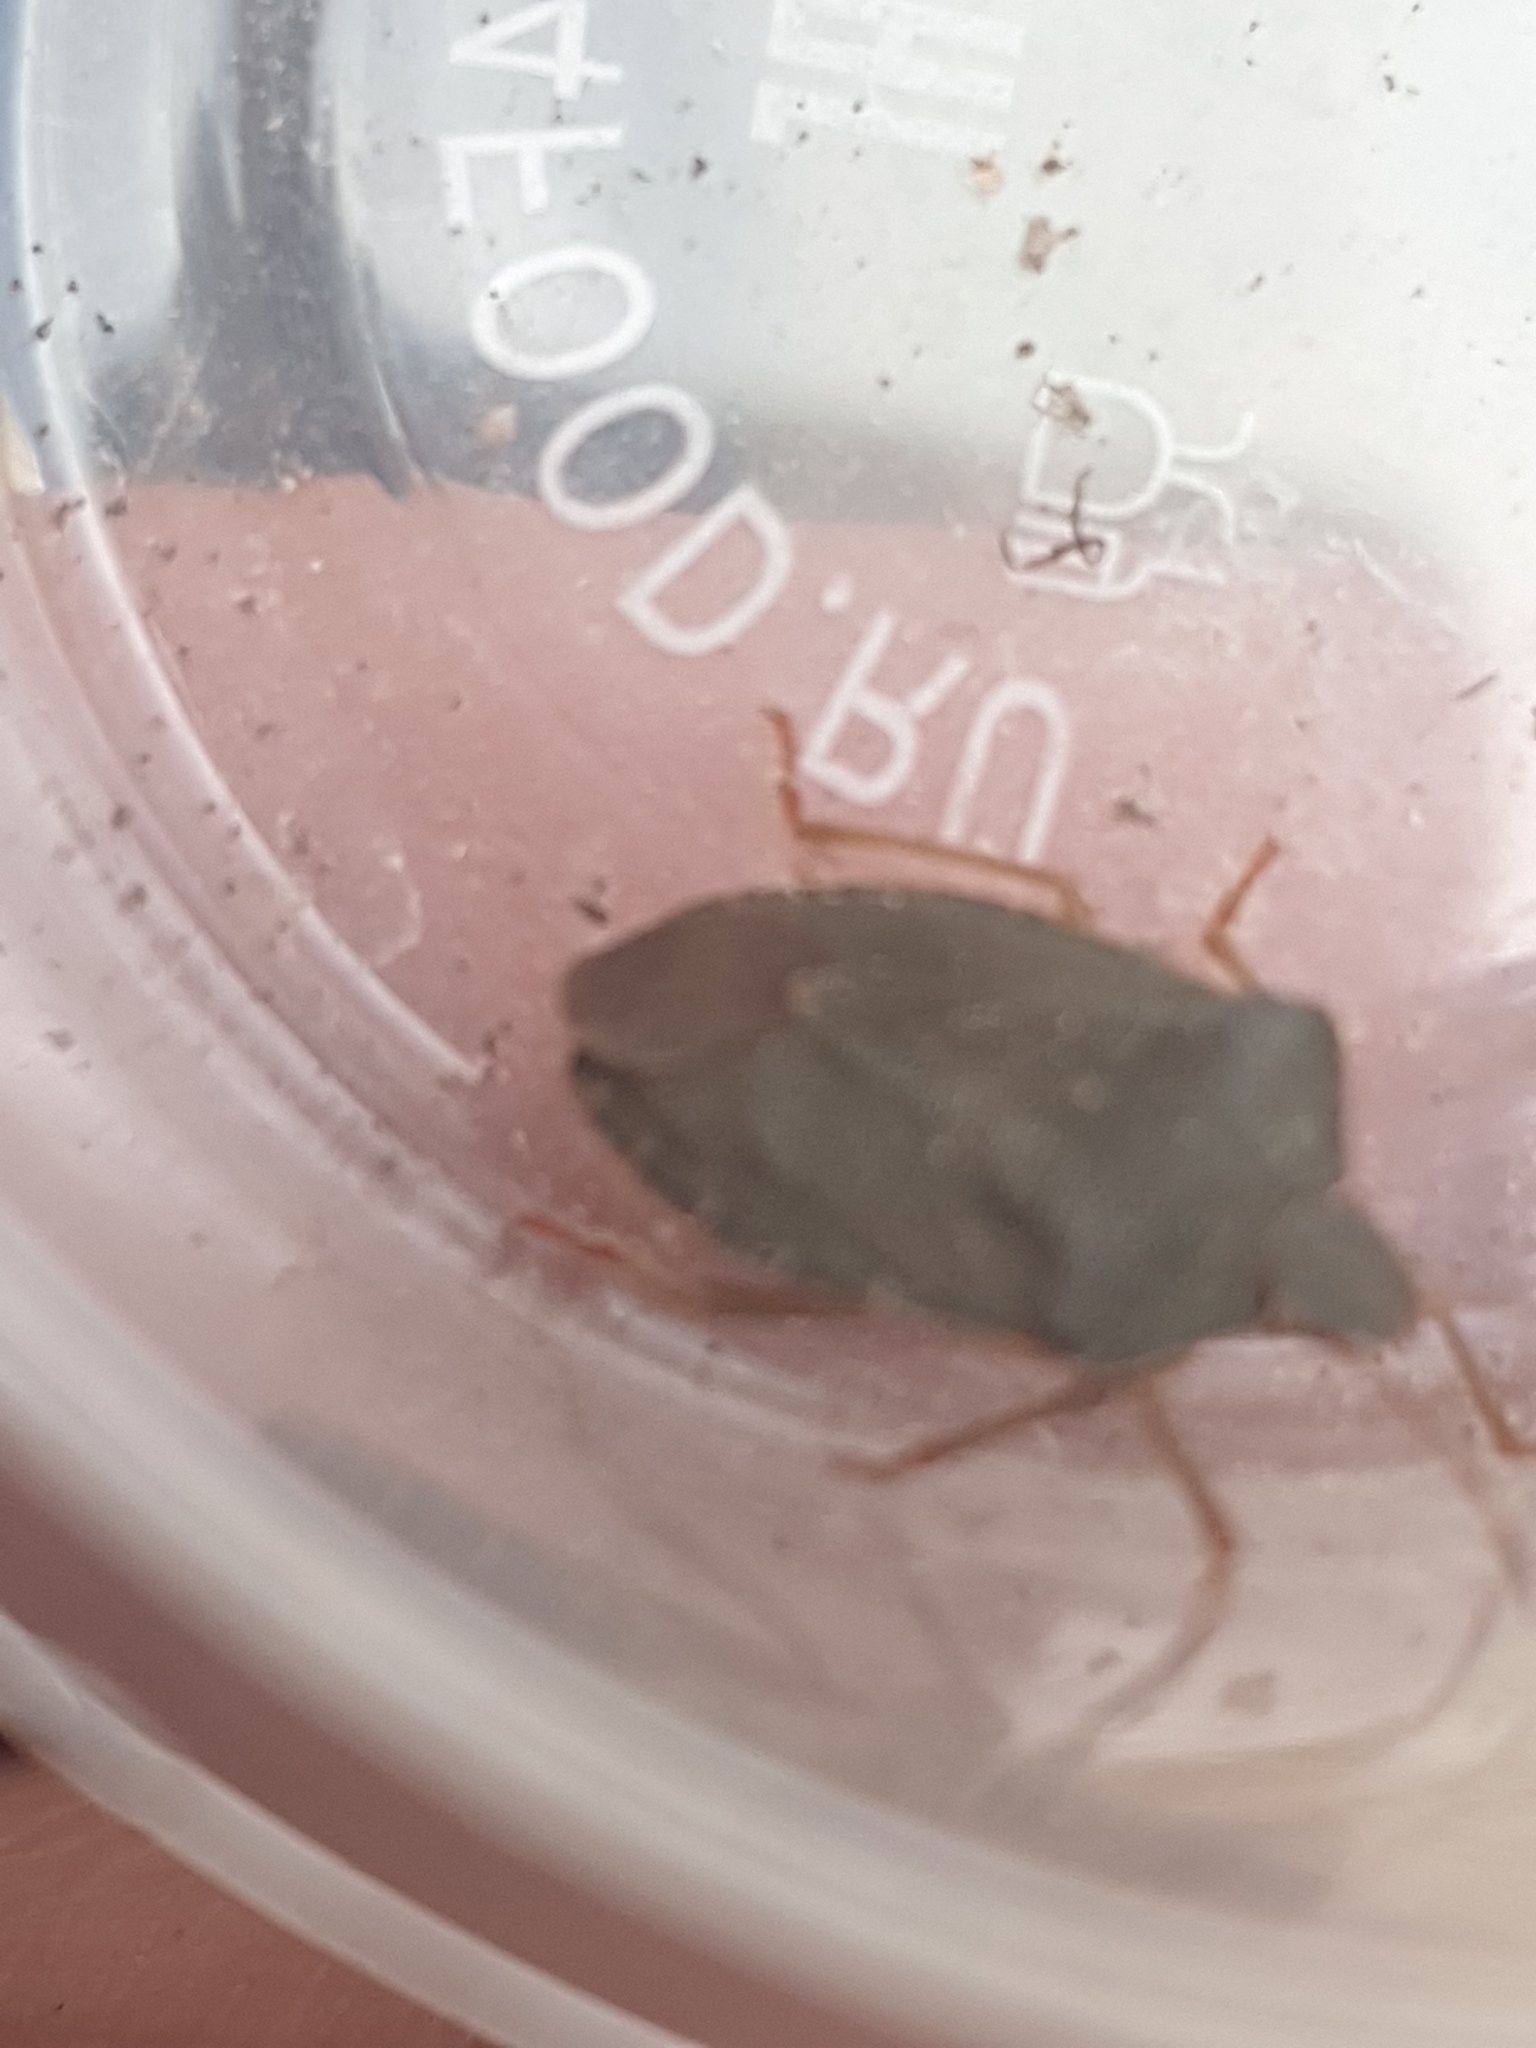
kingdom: Animalia
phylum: Arthropoda
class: Insecta
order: Hemiptera
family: Pentatomidae
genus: Palomena
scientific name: Palomena prasina
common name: Green shieldbug
